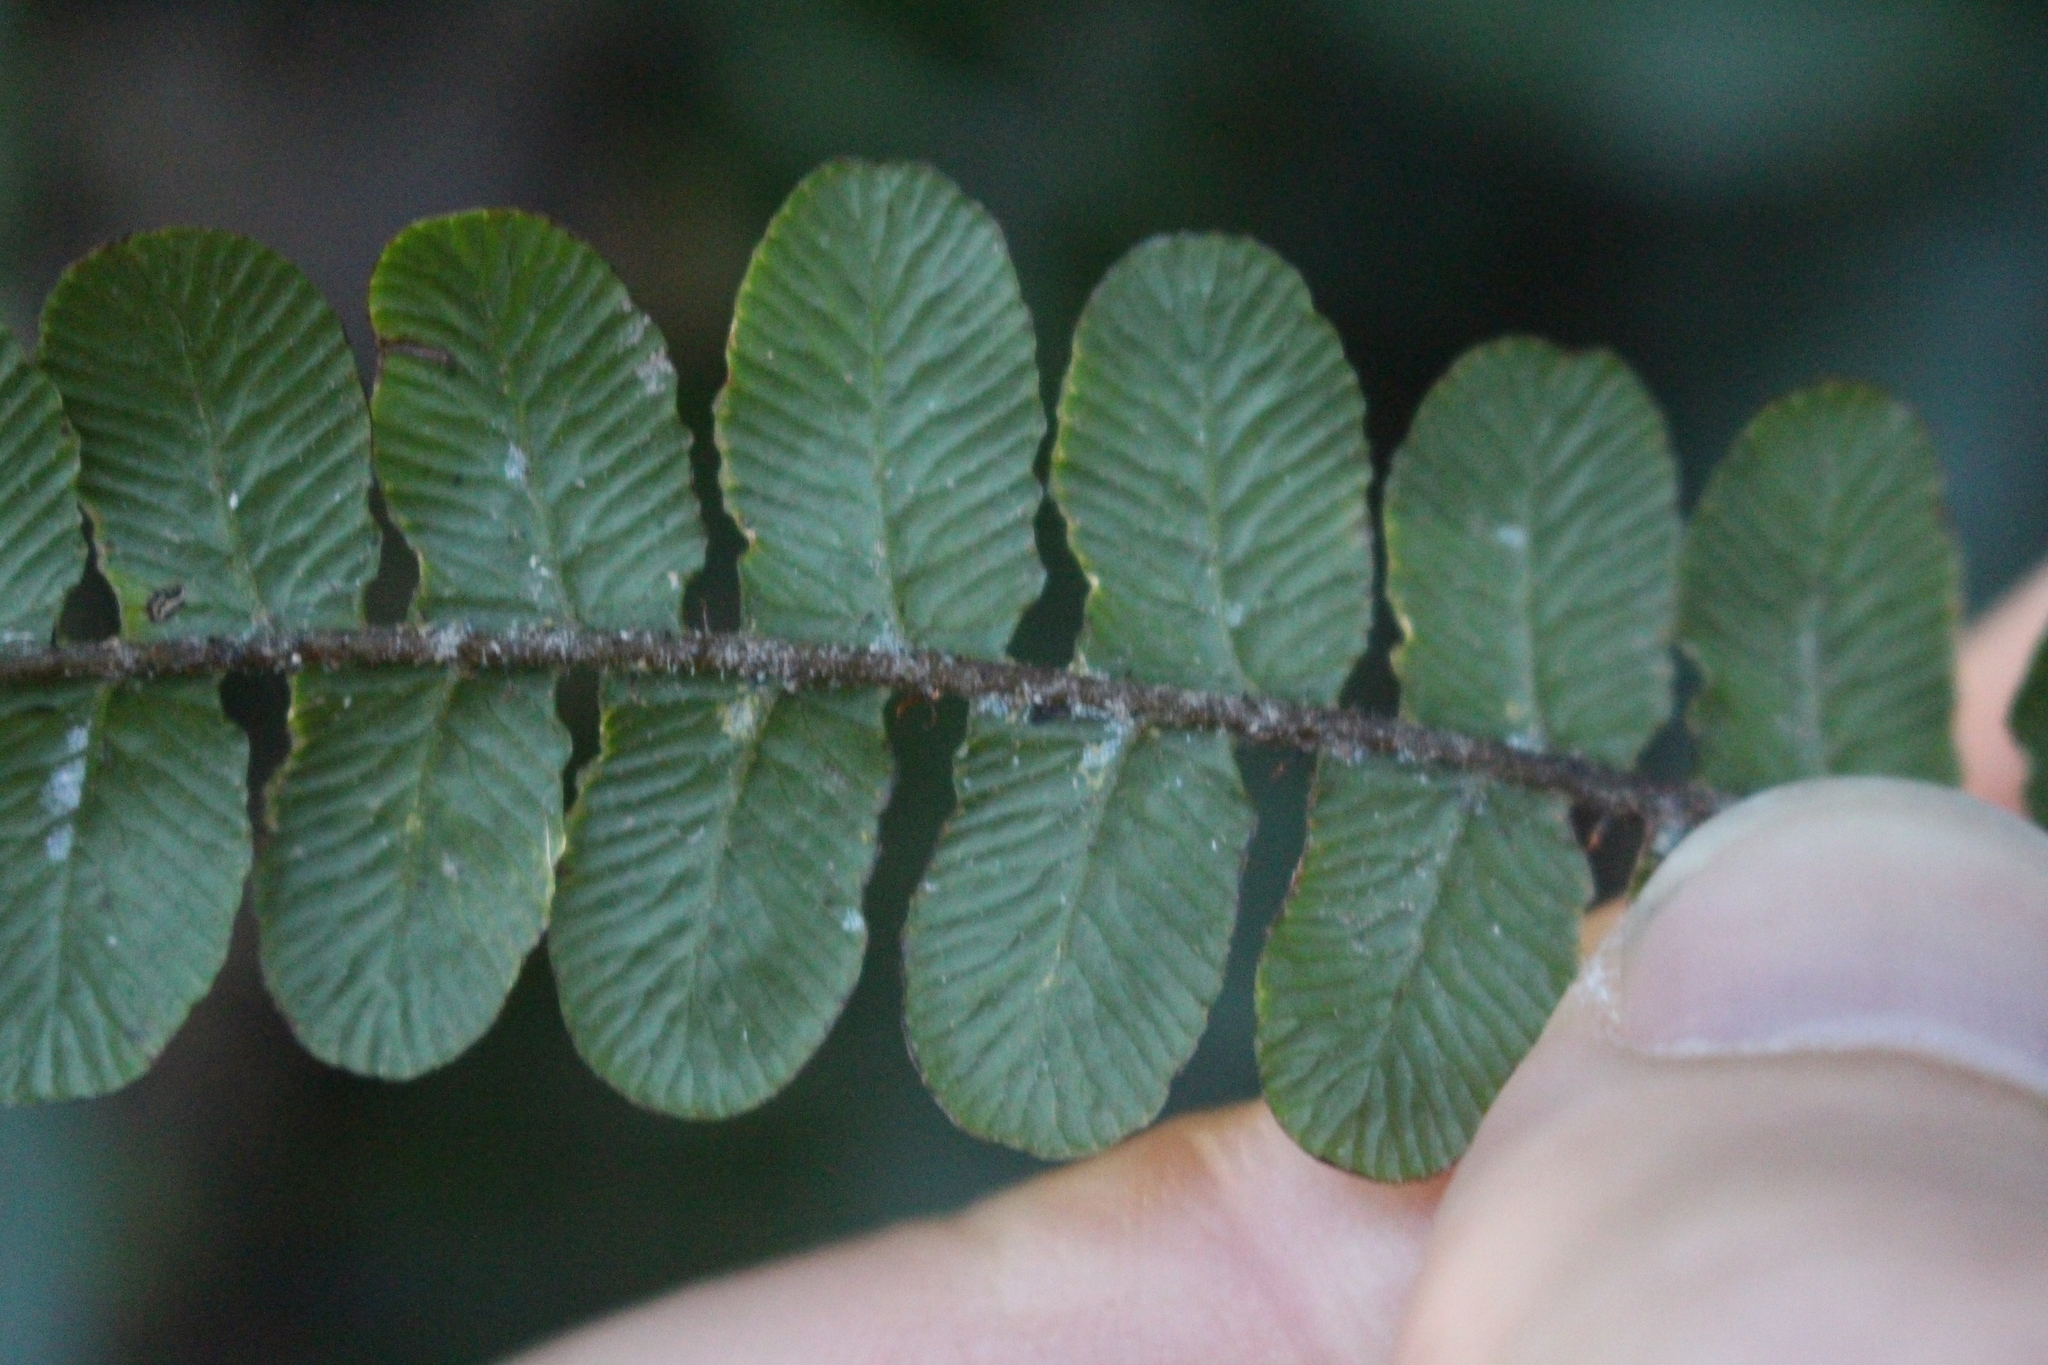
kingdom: Plantae
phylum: Tracheophyta
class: Polypodiopsida
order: Polypodiales
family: Blechnaceae
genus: Cranfillia
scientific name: Cranfillia fluviatilis
